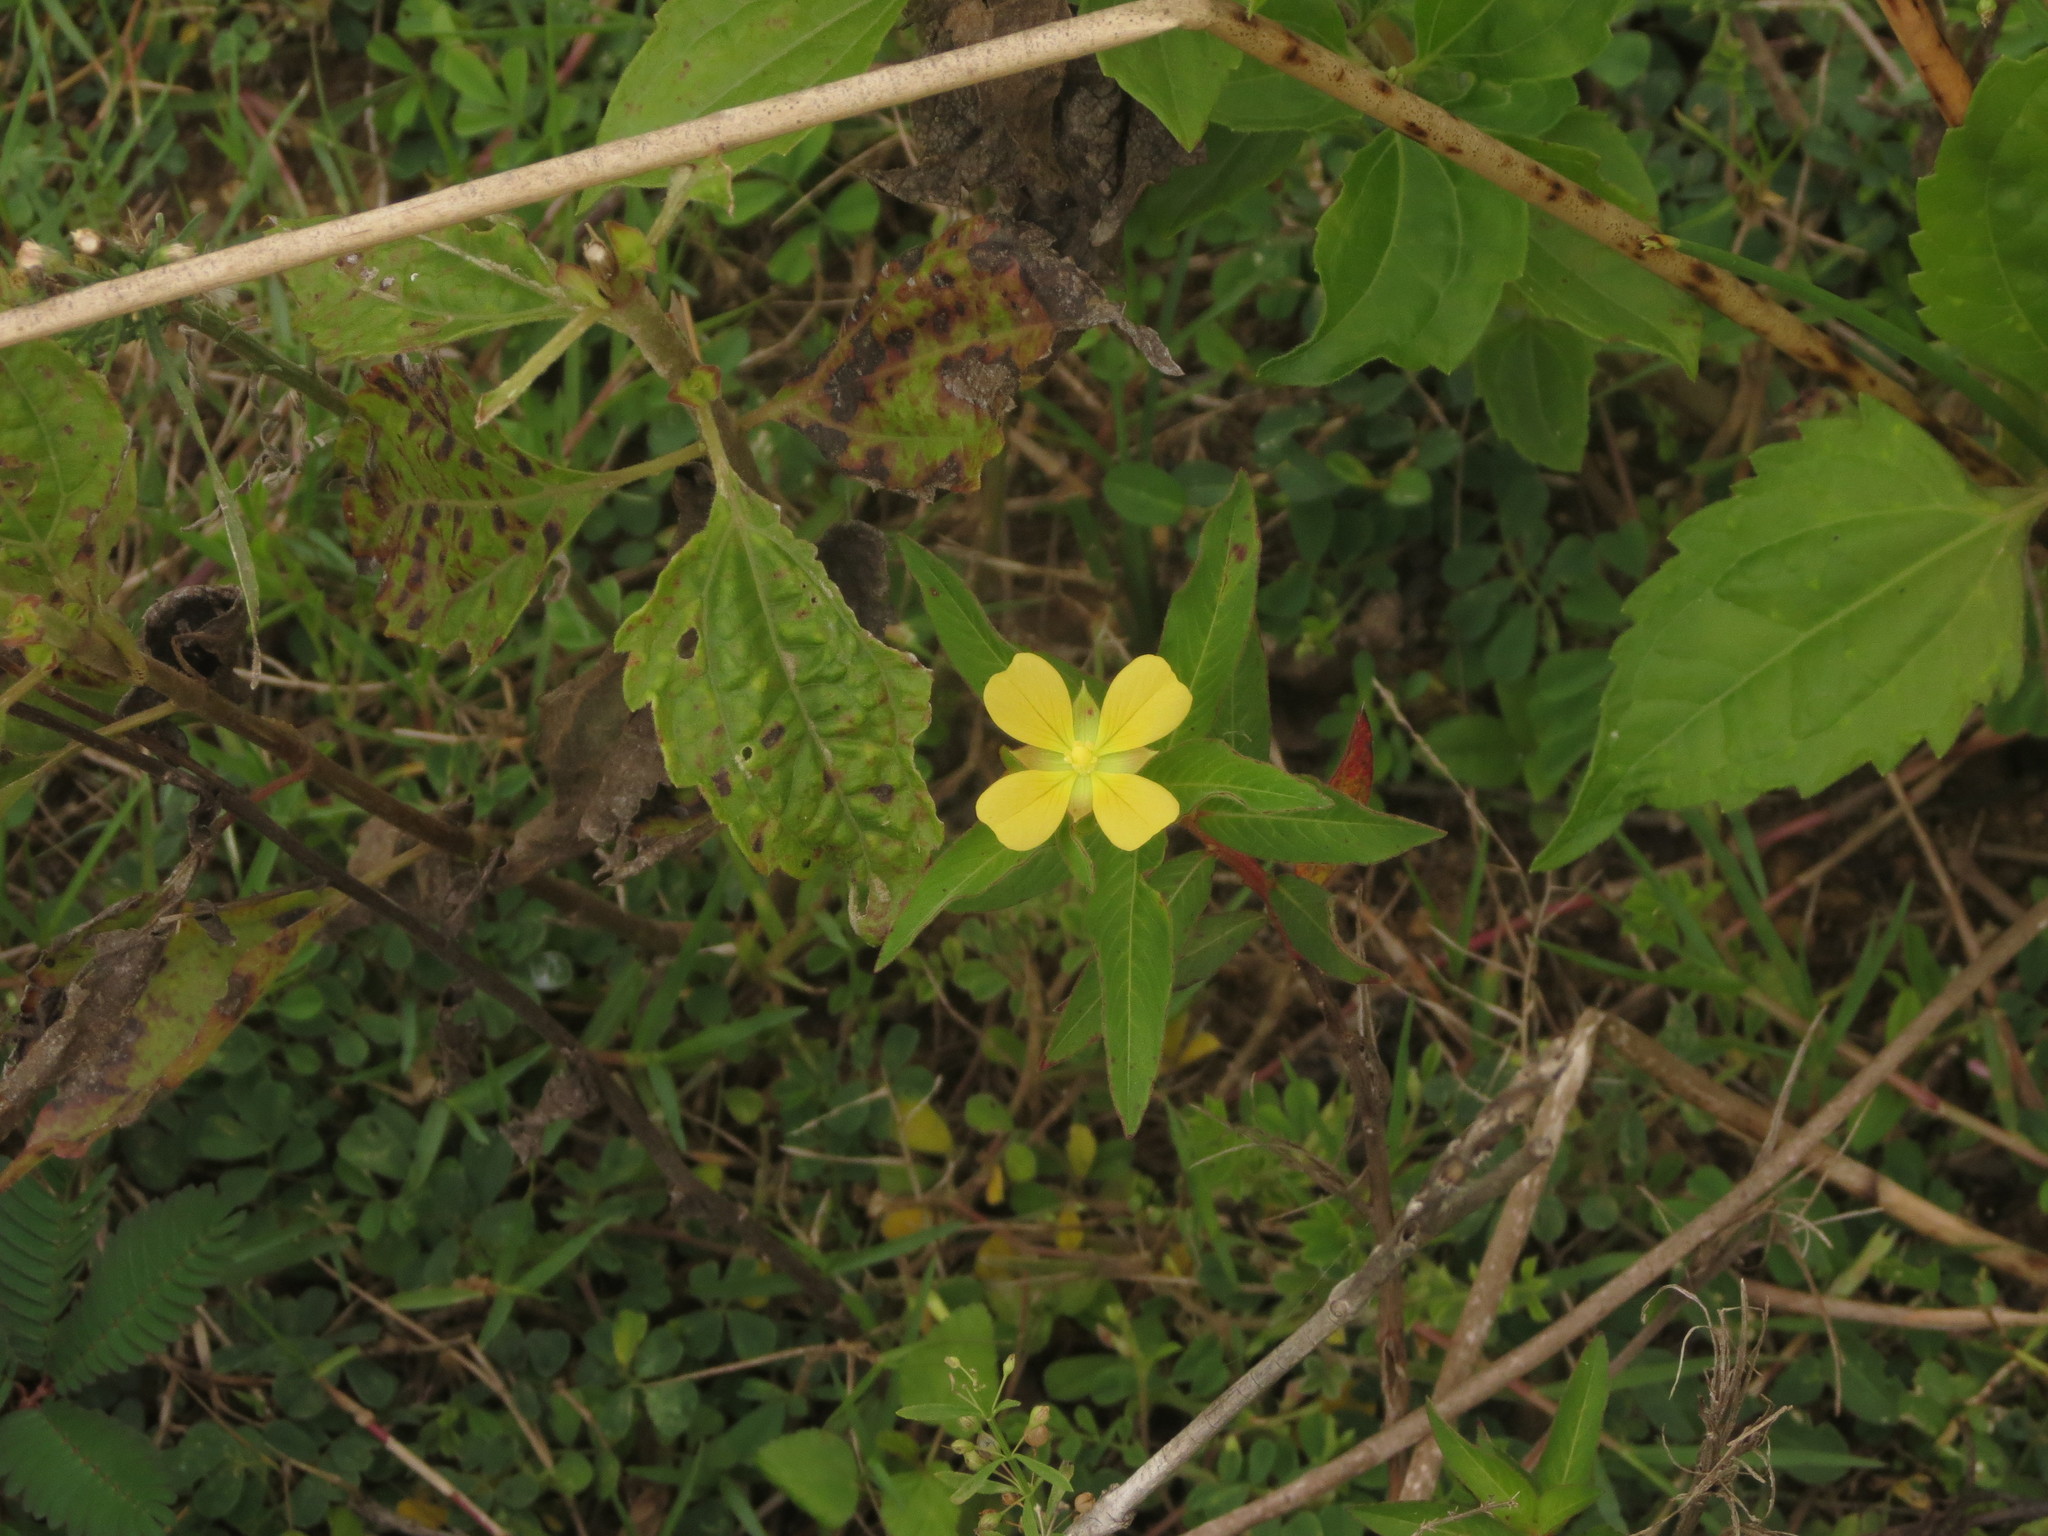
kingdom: Plantae
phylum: Tracheophyta
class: Magnoliopsida
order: Myrtales
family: Onagraceae
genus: Ludwigia
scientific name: Ludwigia octovalvis
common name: Water-primrose
